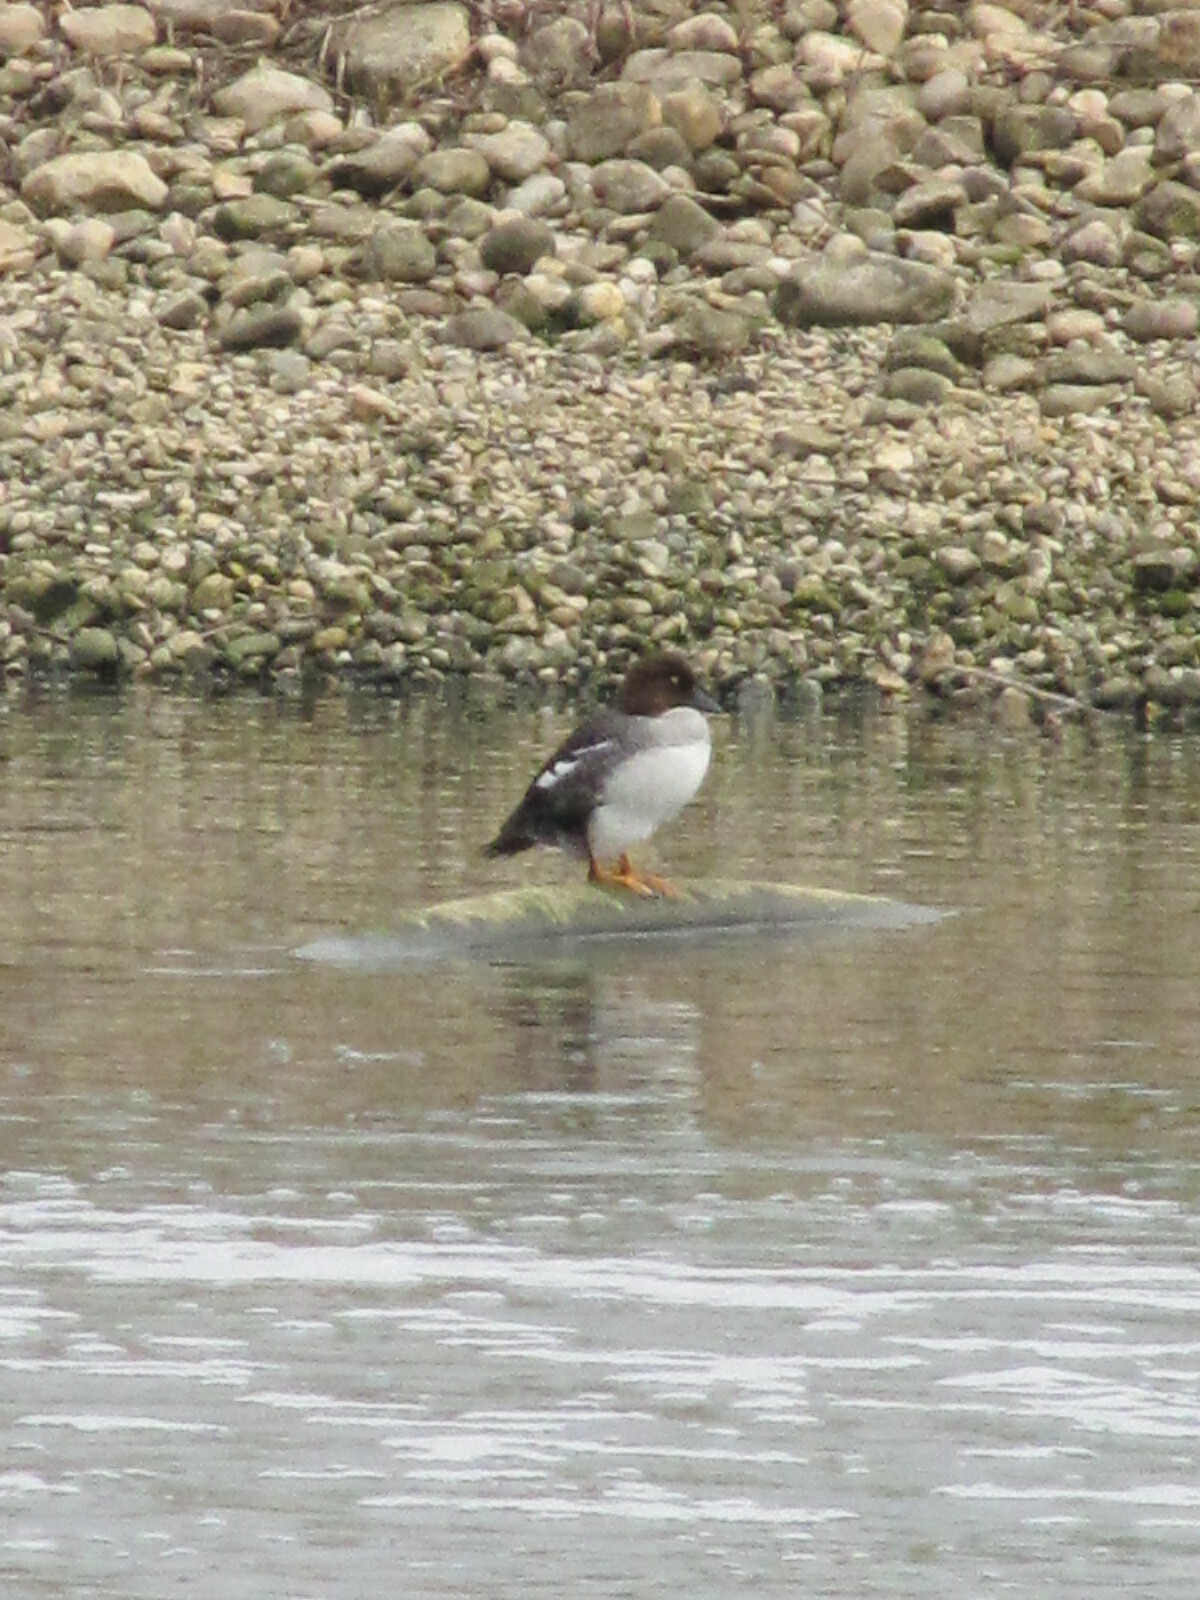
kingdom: Animalia
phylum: Chordata
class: Aves
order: Anseriformes
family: Anatidae
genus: Bucephala
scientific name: Bucephala clangula
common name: Common goldeneye
